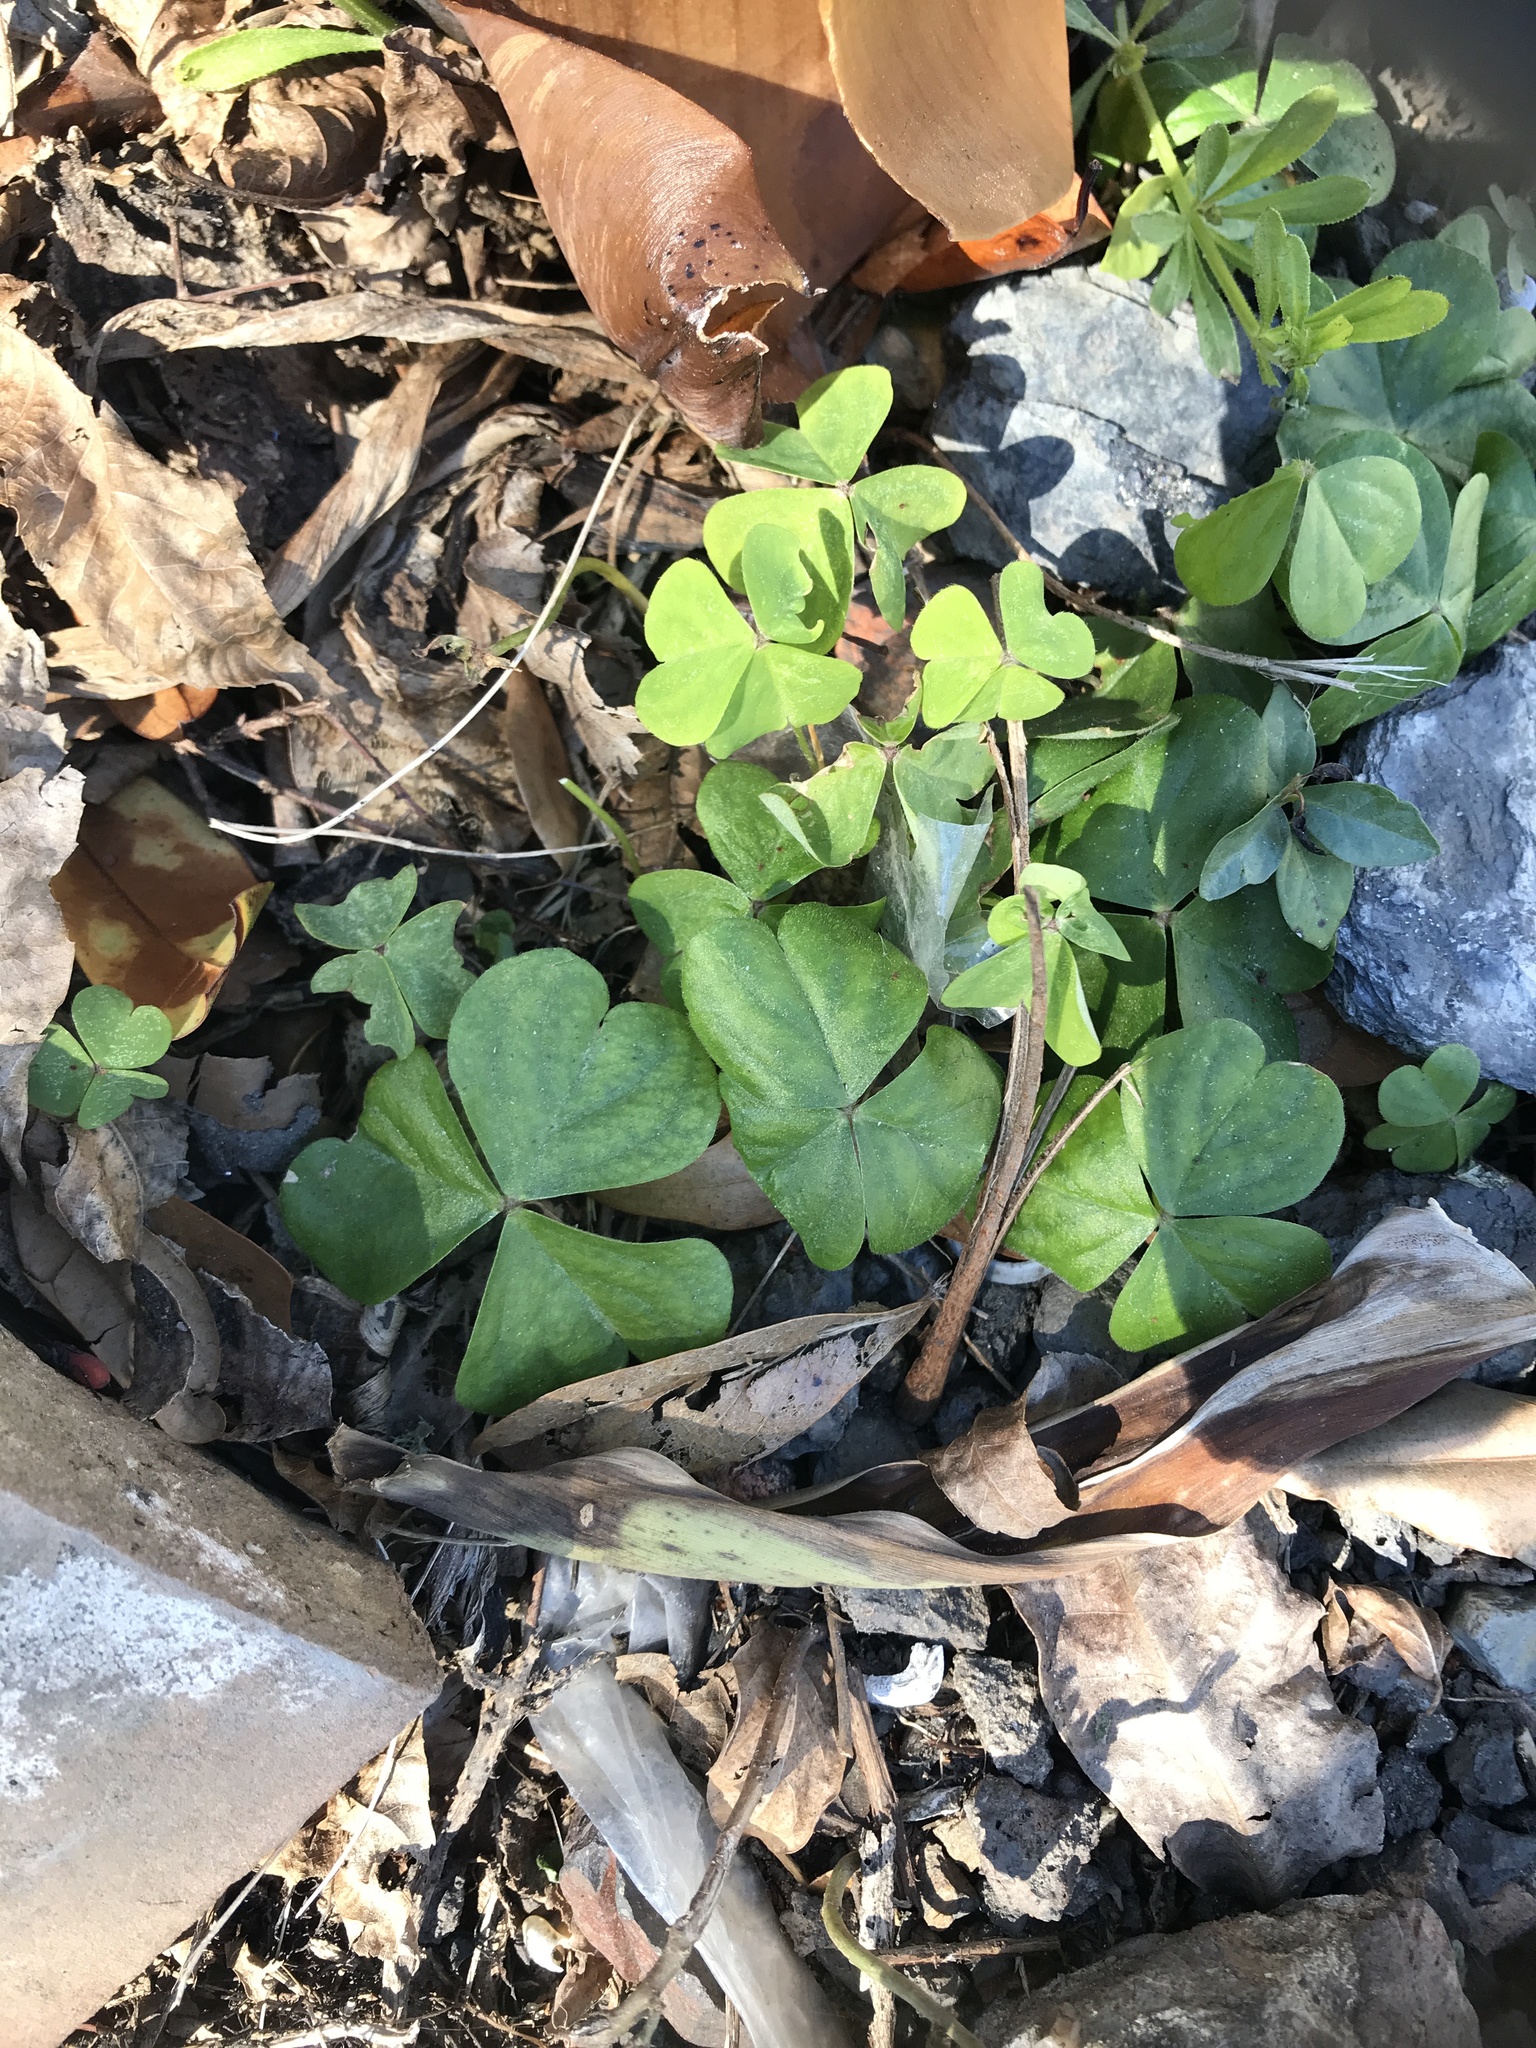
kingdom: Plantae
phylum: Tracheophyta
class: Magnoliopsida
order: Oxalidales
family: Oxalidaceae
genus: Oxalis
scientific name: Oxalis debilis
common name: Large-flowered pink-sorrel
